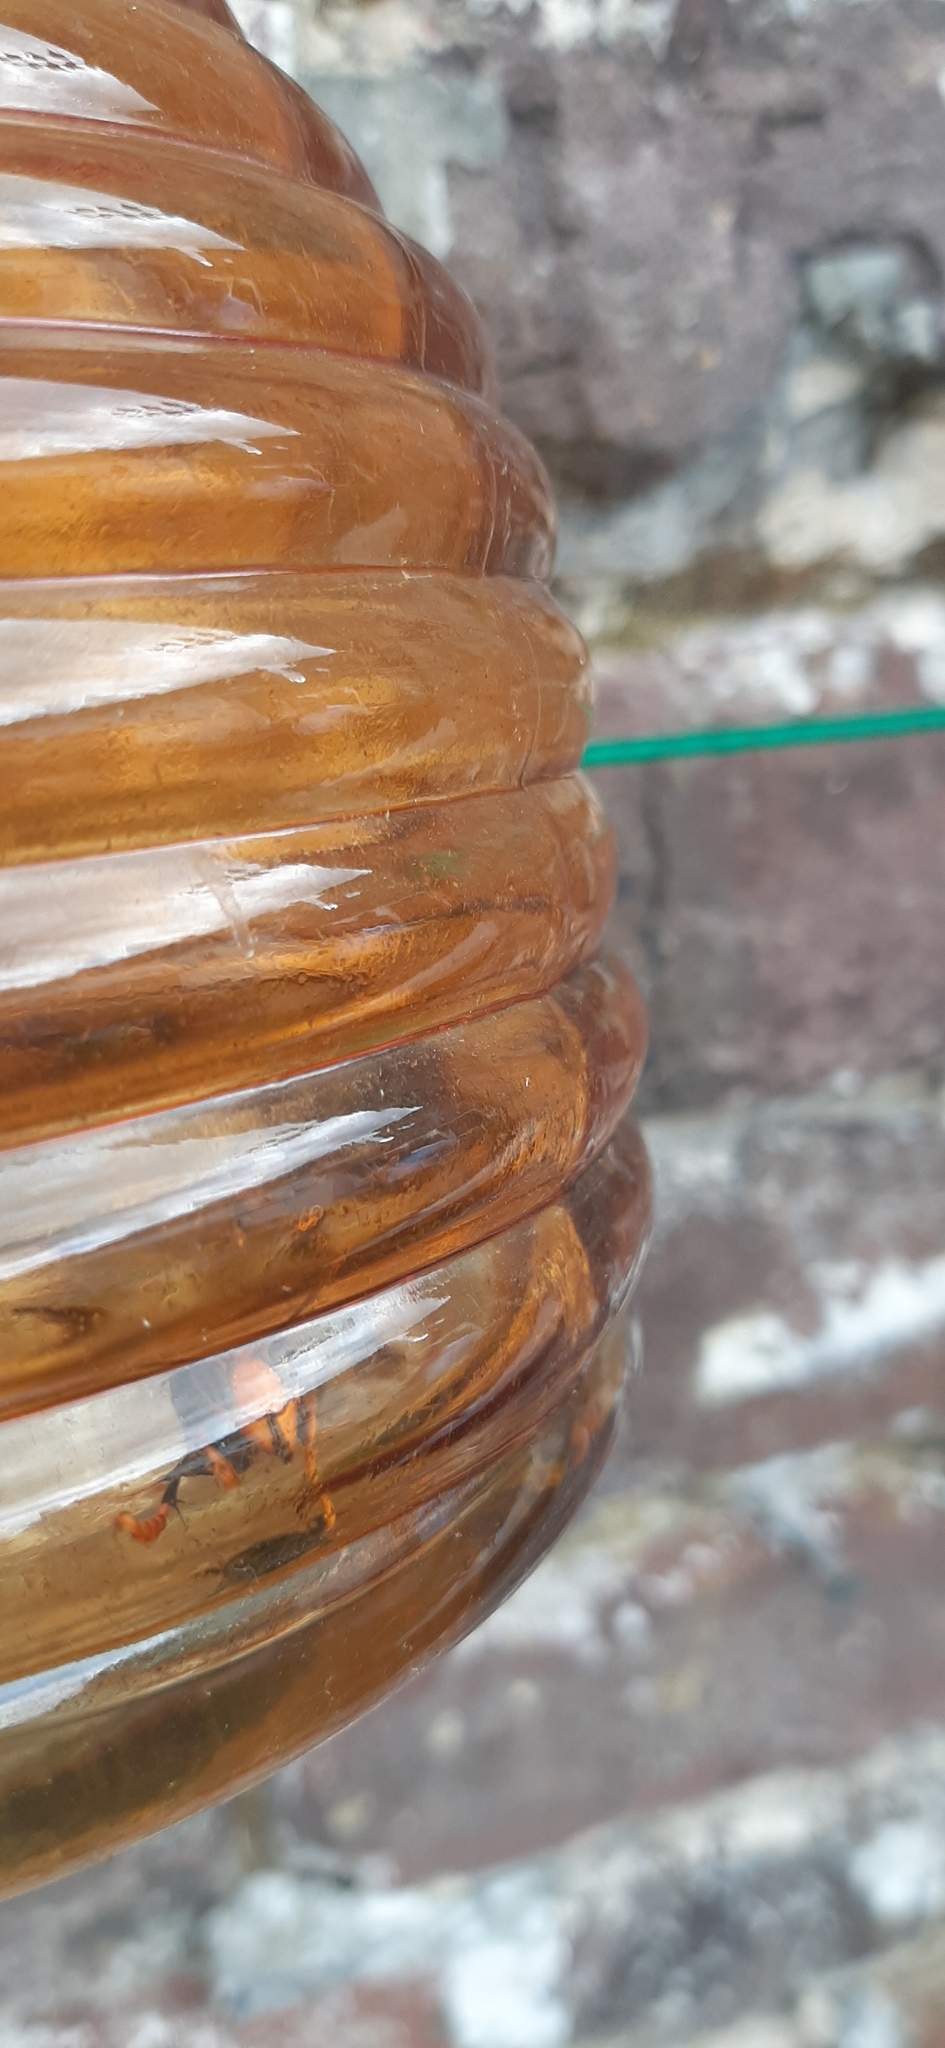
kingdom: Animalia
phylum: Arthropoda
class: Insecta
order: Hymenoptera
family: Vespidae
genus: Vespa
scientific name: Vespa velutina
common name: Asian hornet
